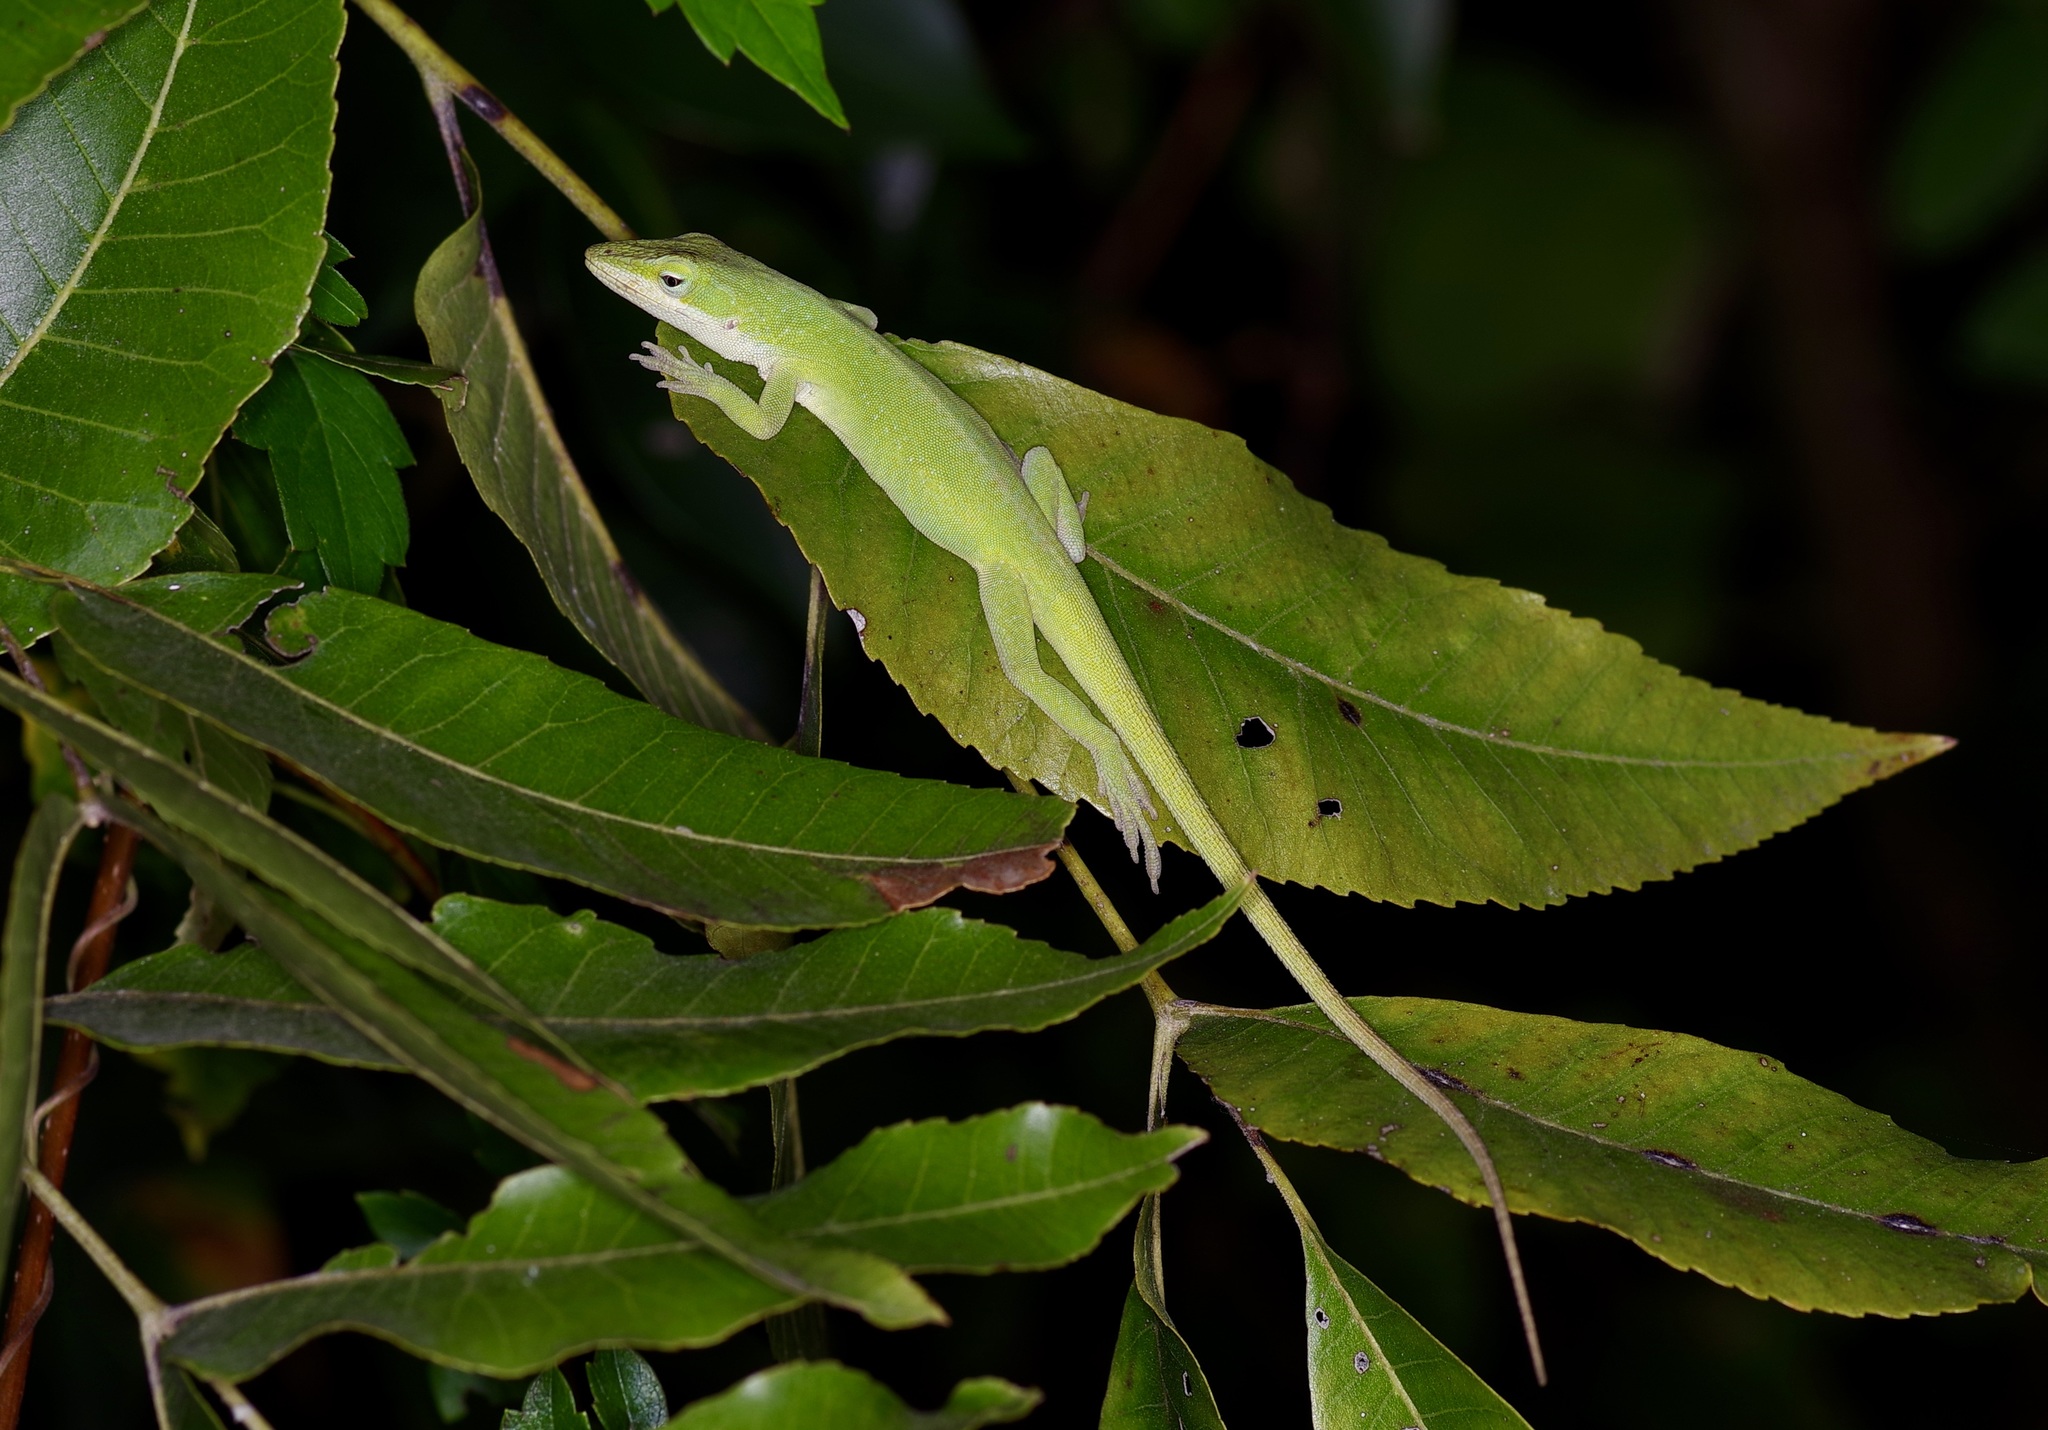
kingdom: Animalia
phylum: Chordata
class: Squamata
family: Dactyloidae
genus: Anolis
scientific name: Anolis carolinensis
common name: Green anole
